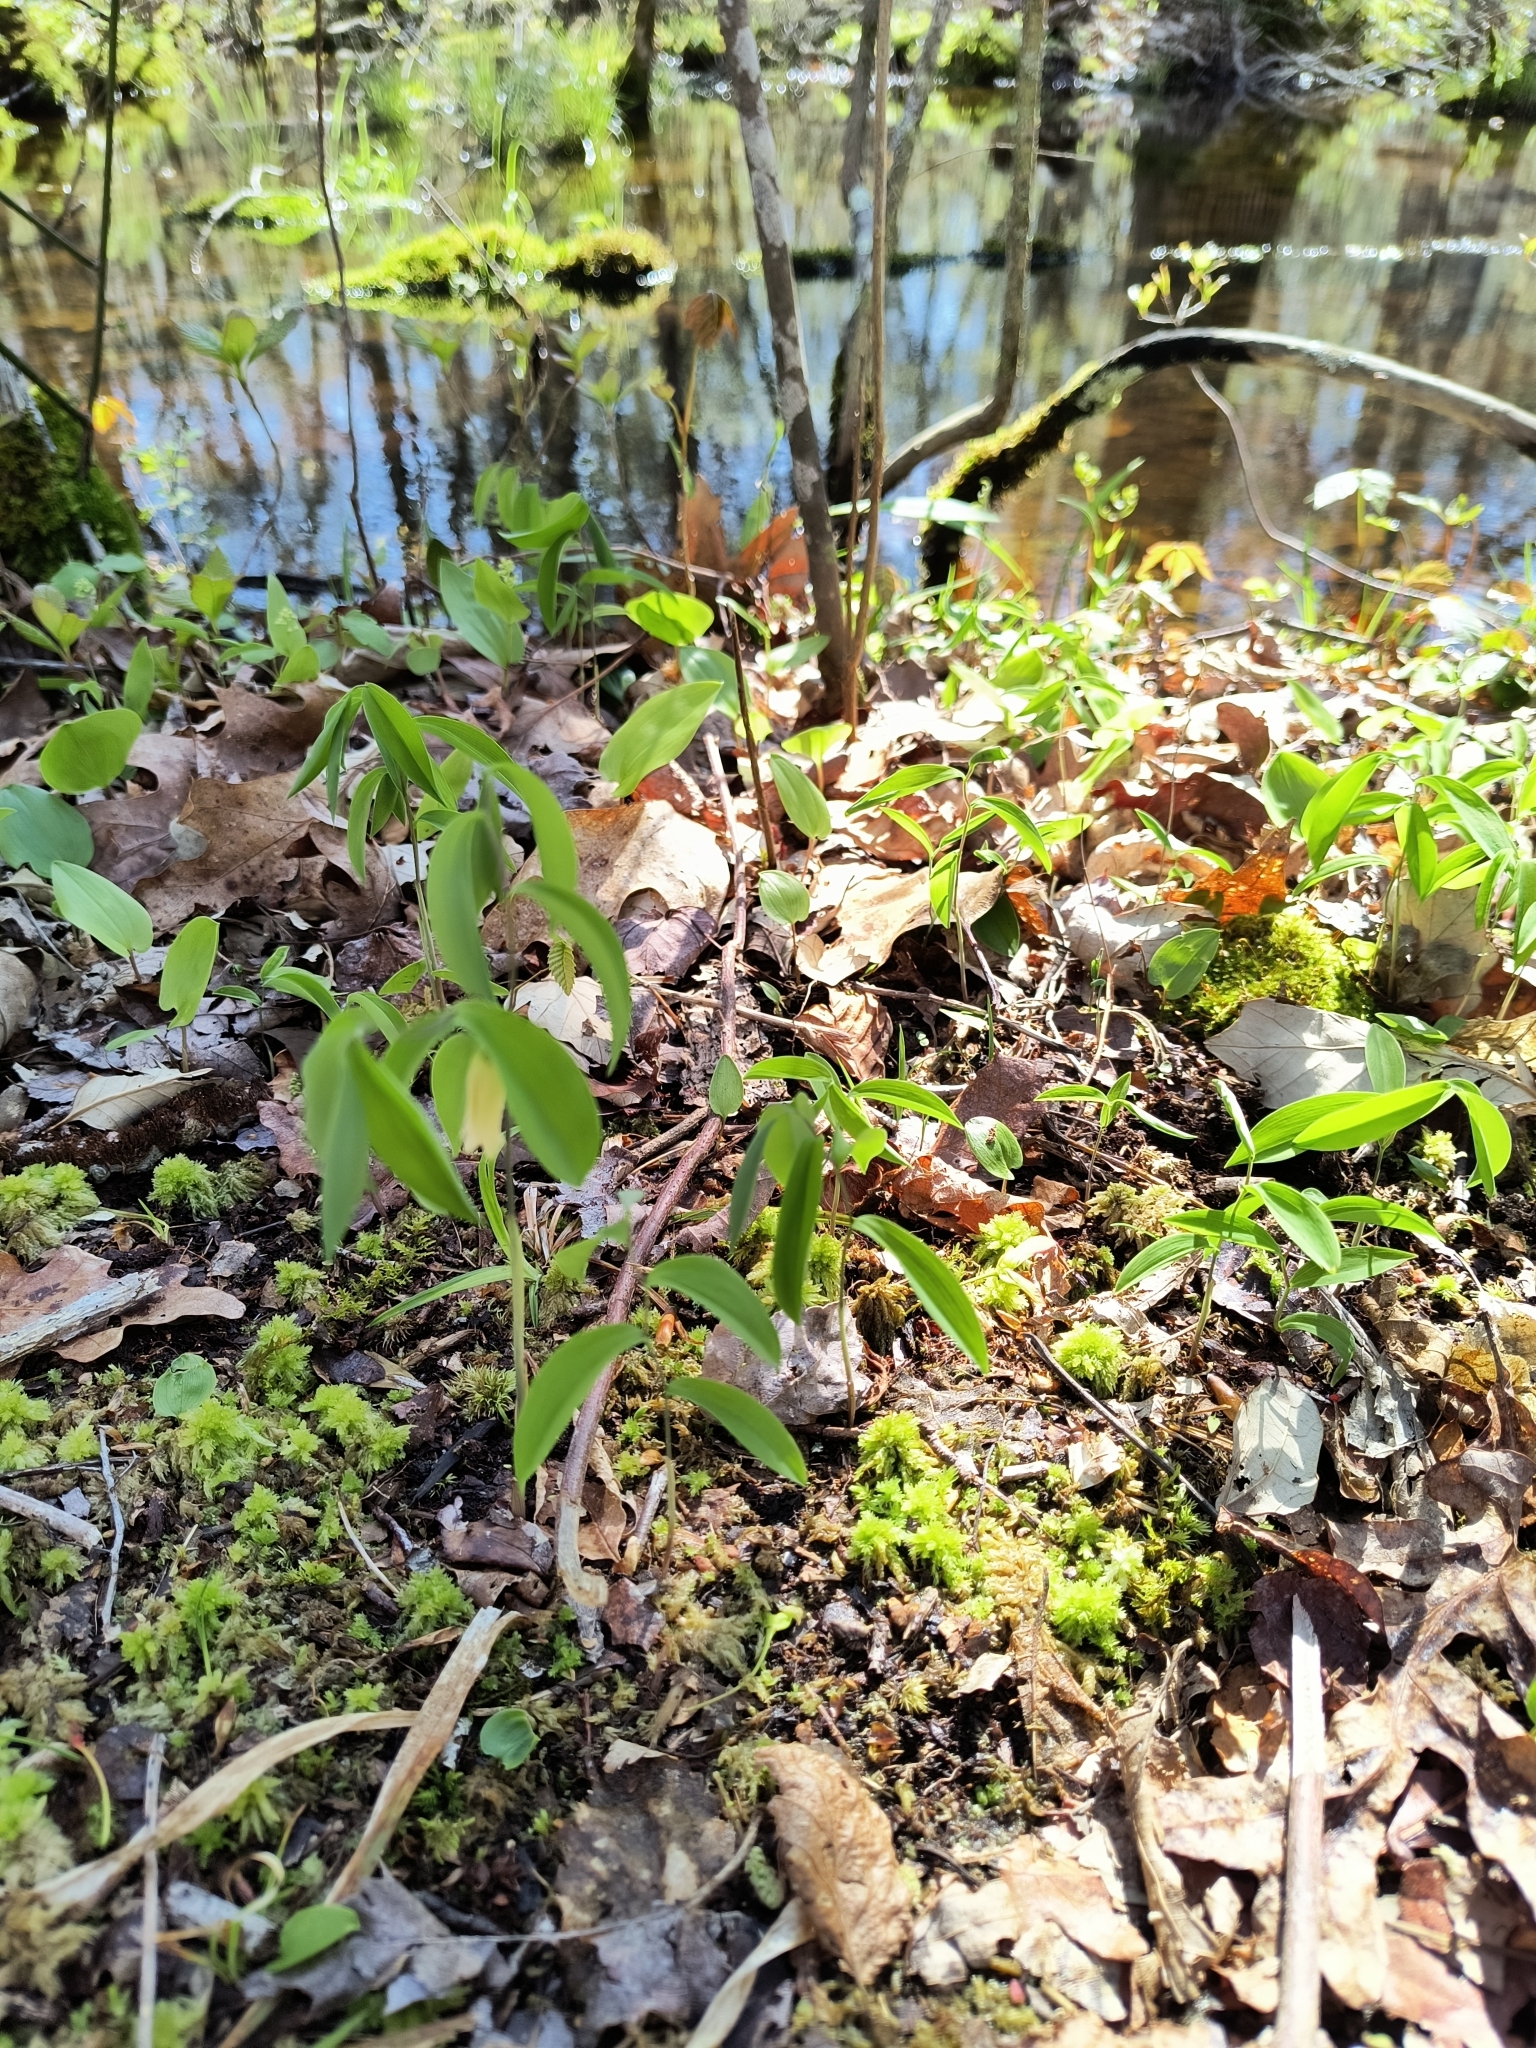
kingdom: Plantae
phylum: Tracheophyta
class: Liliopsida
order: Liliales
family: Colchicaceae
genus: Uvularia
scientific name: Uvularia sessilifolia
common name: Straw-lily
